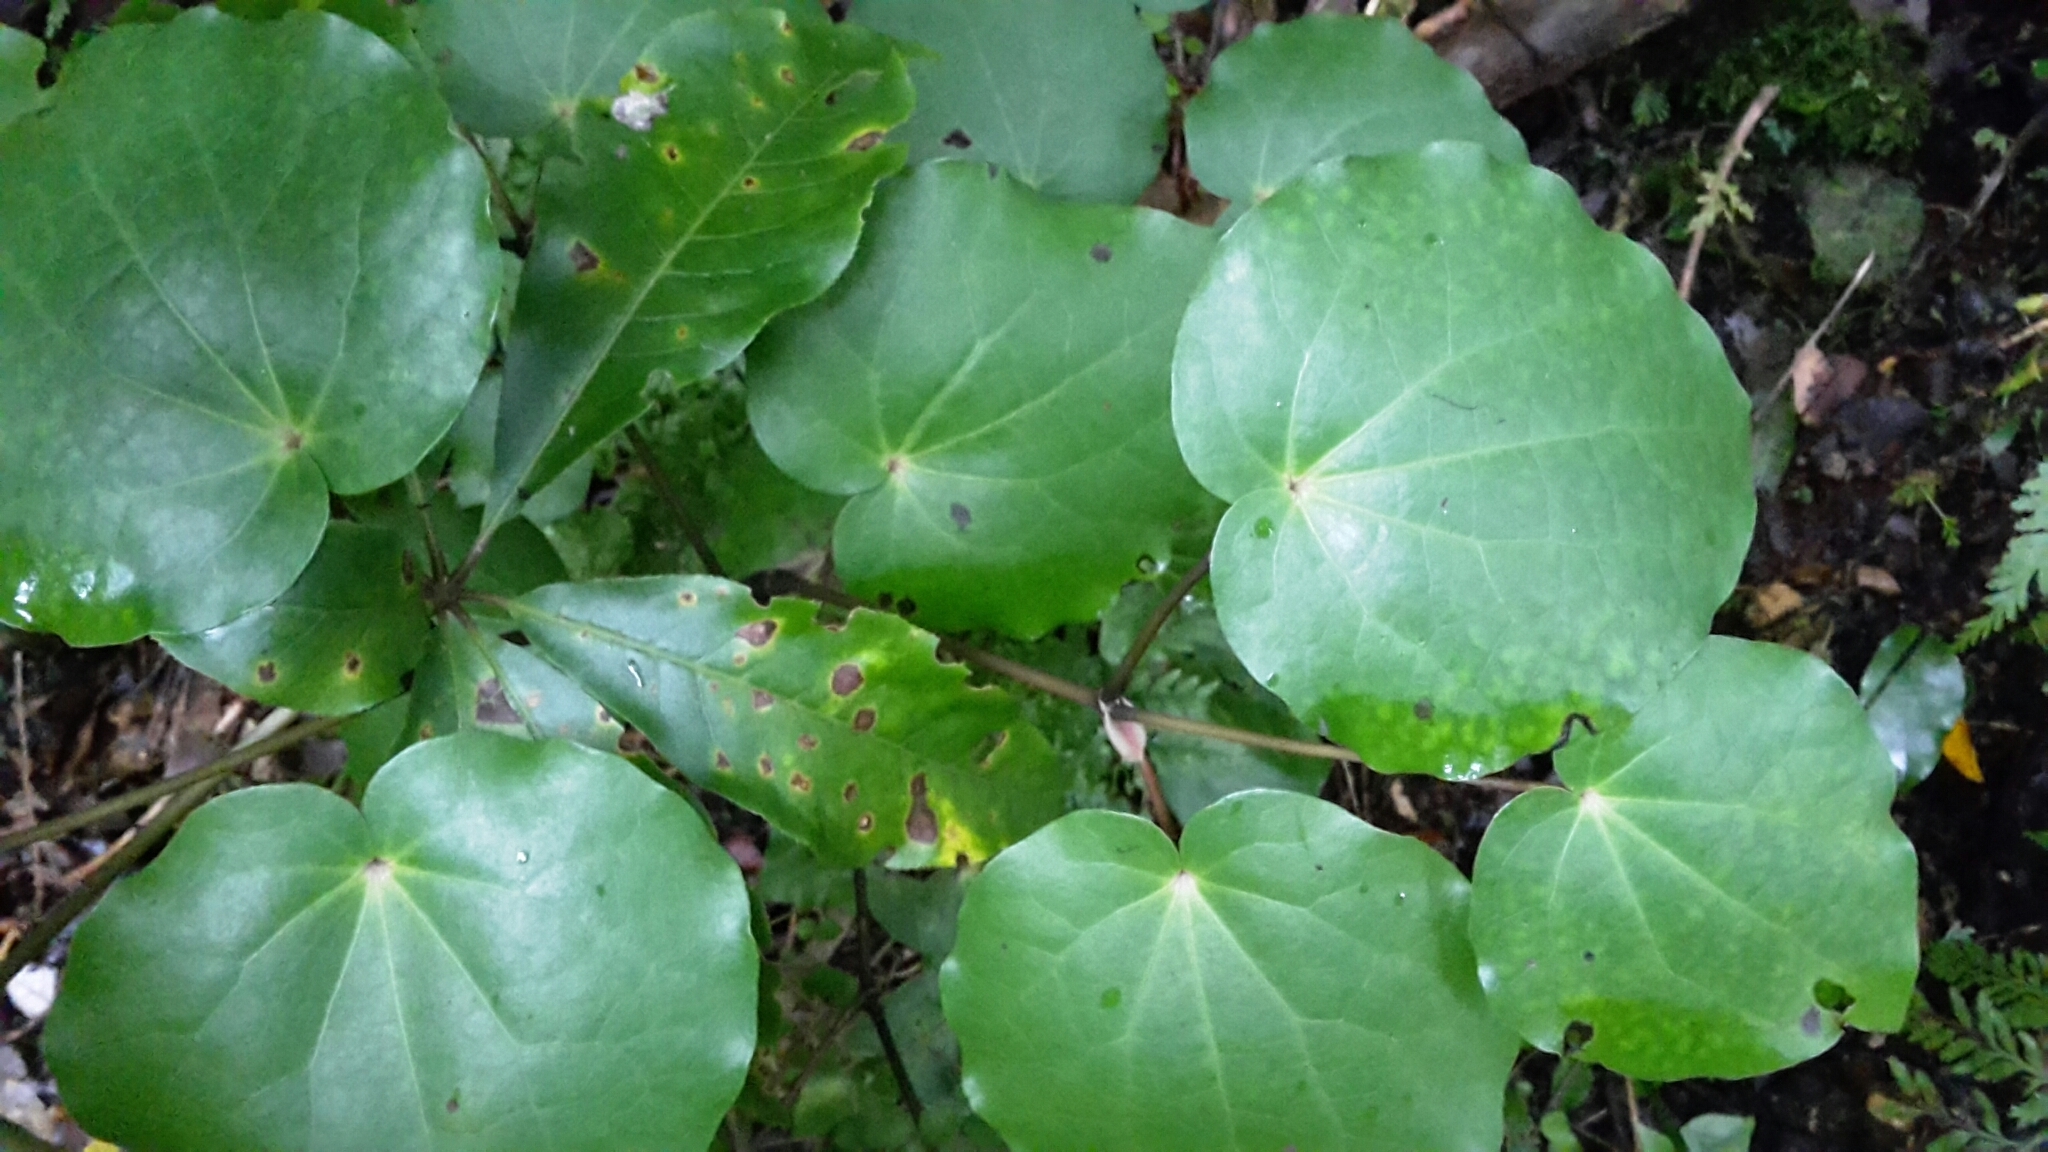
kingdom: Plantae
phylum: Tracheophyta
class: Magnoliopsida
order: Piperales
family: Piperaceae
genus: Macropiper
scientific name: Macropiper excelsum
